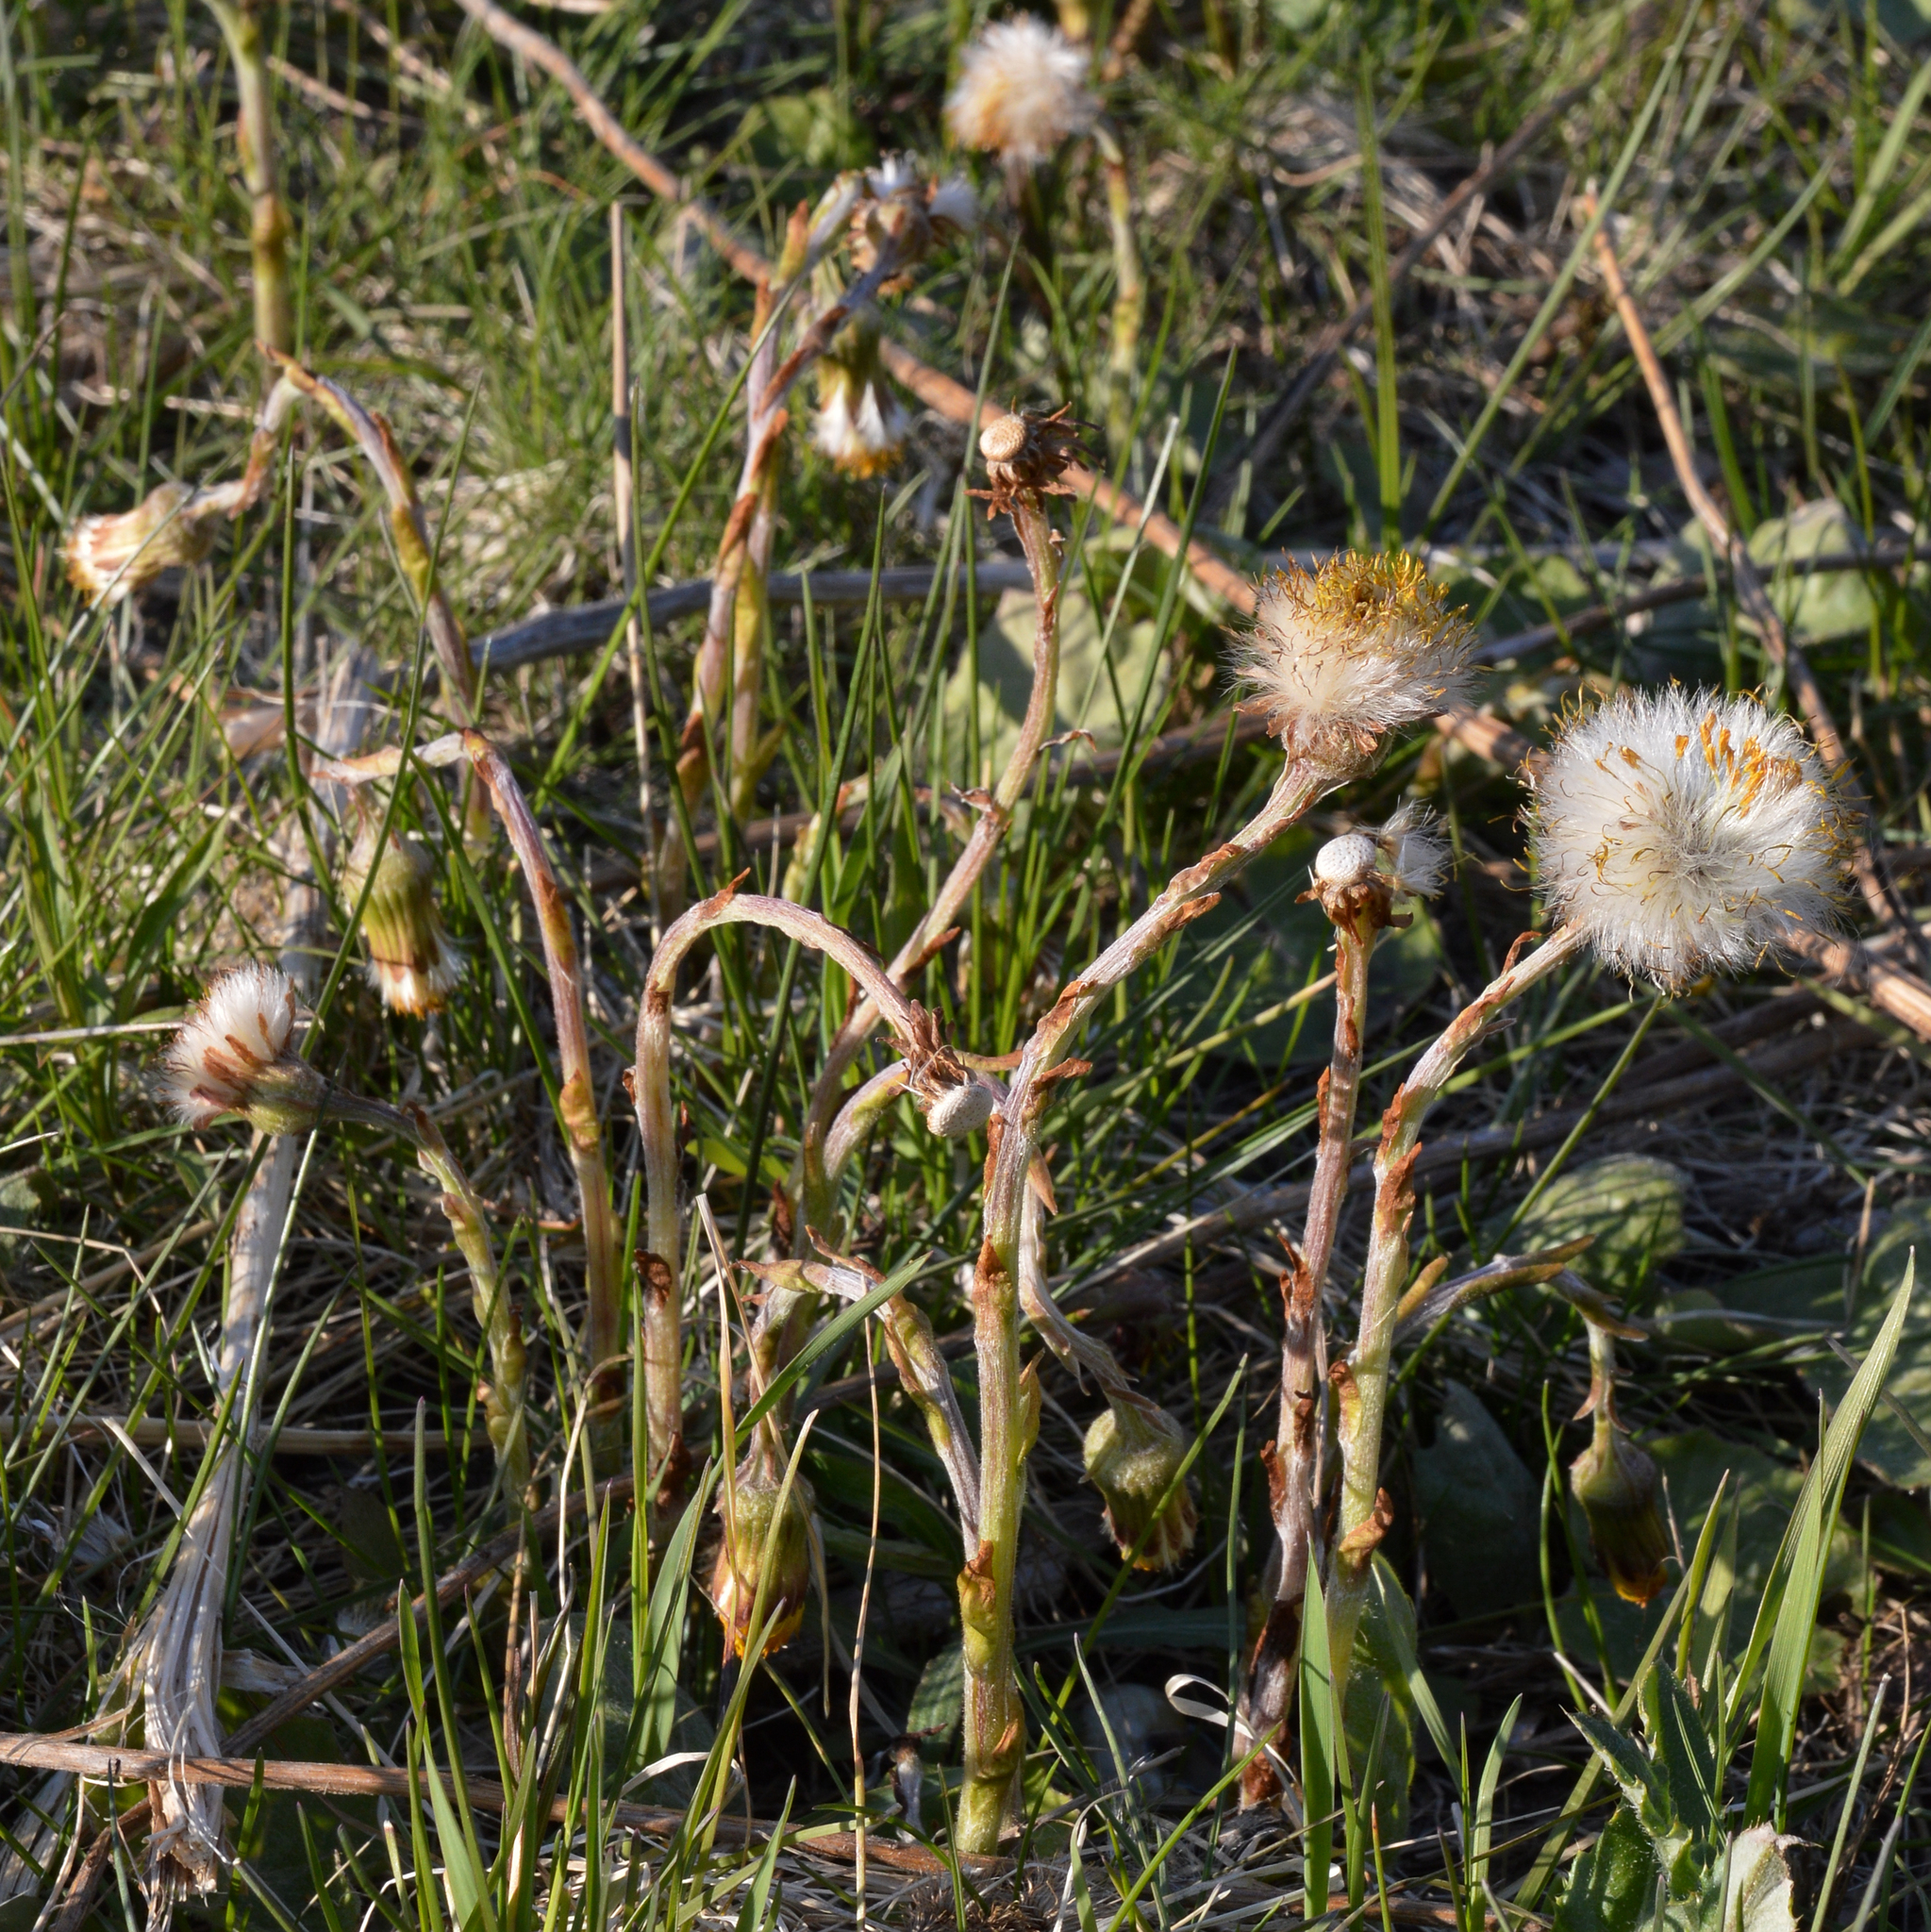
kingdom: Plantae
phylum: Tracheophyta
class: Magnoliopsida
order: Asterales
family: Asteraceae
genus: Tussilago
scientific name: Tussilago farfara
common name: Coltsfoot
